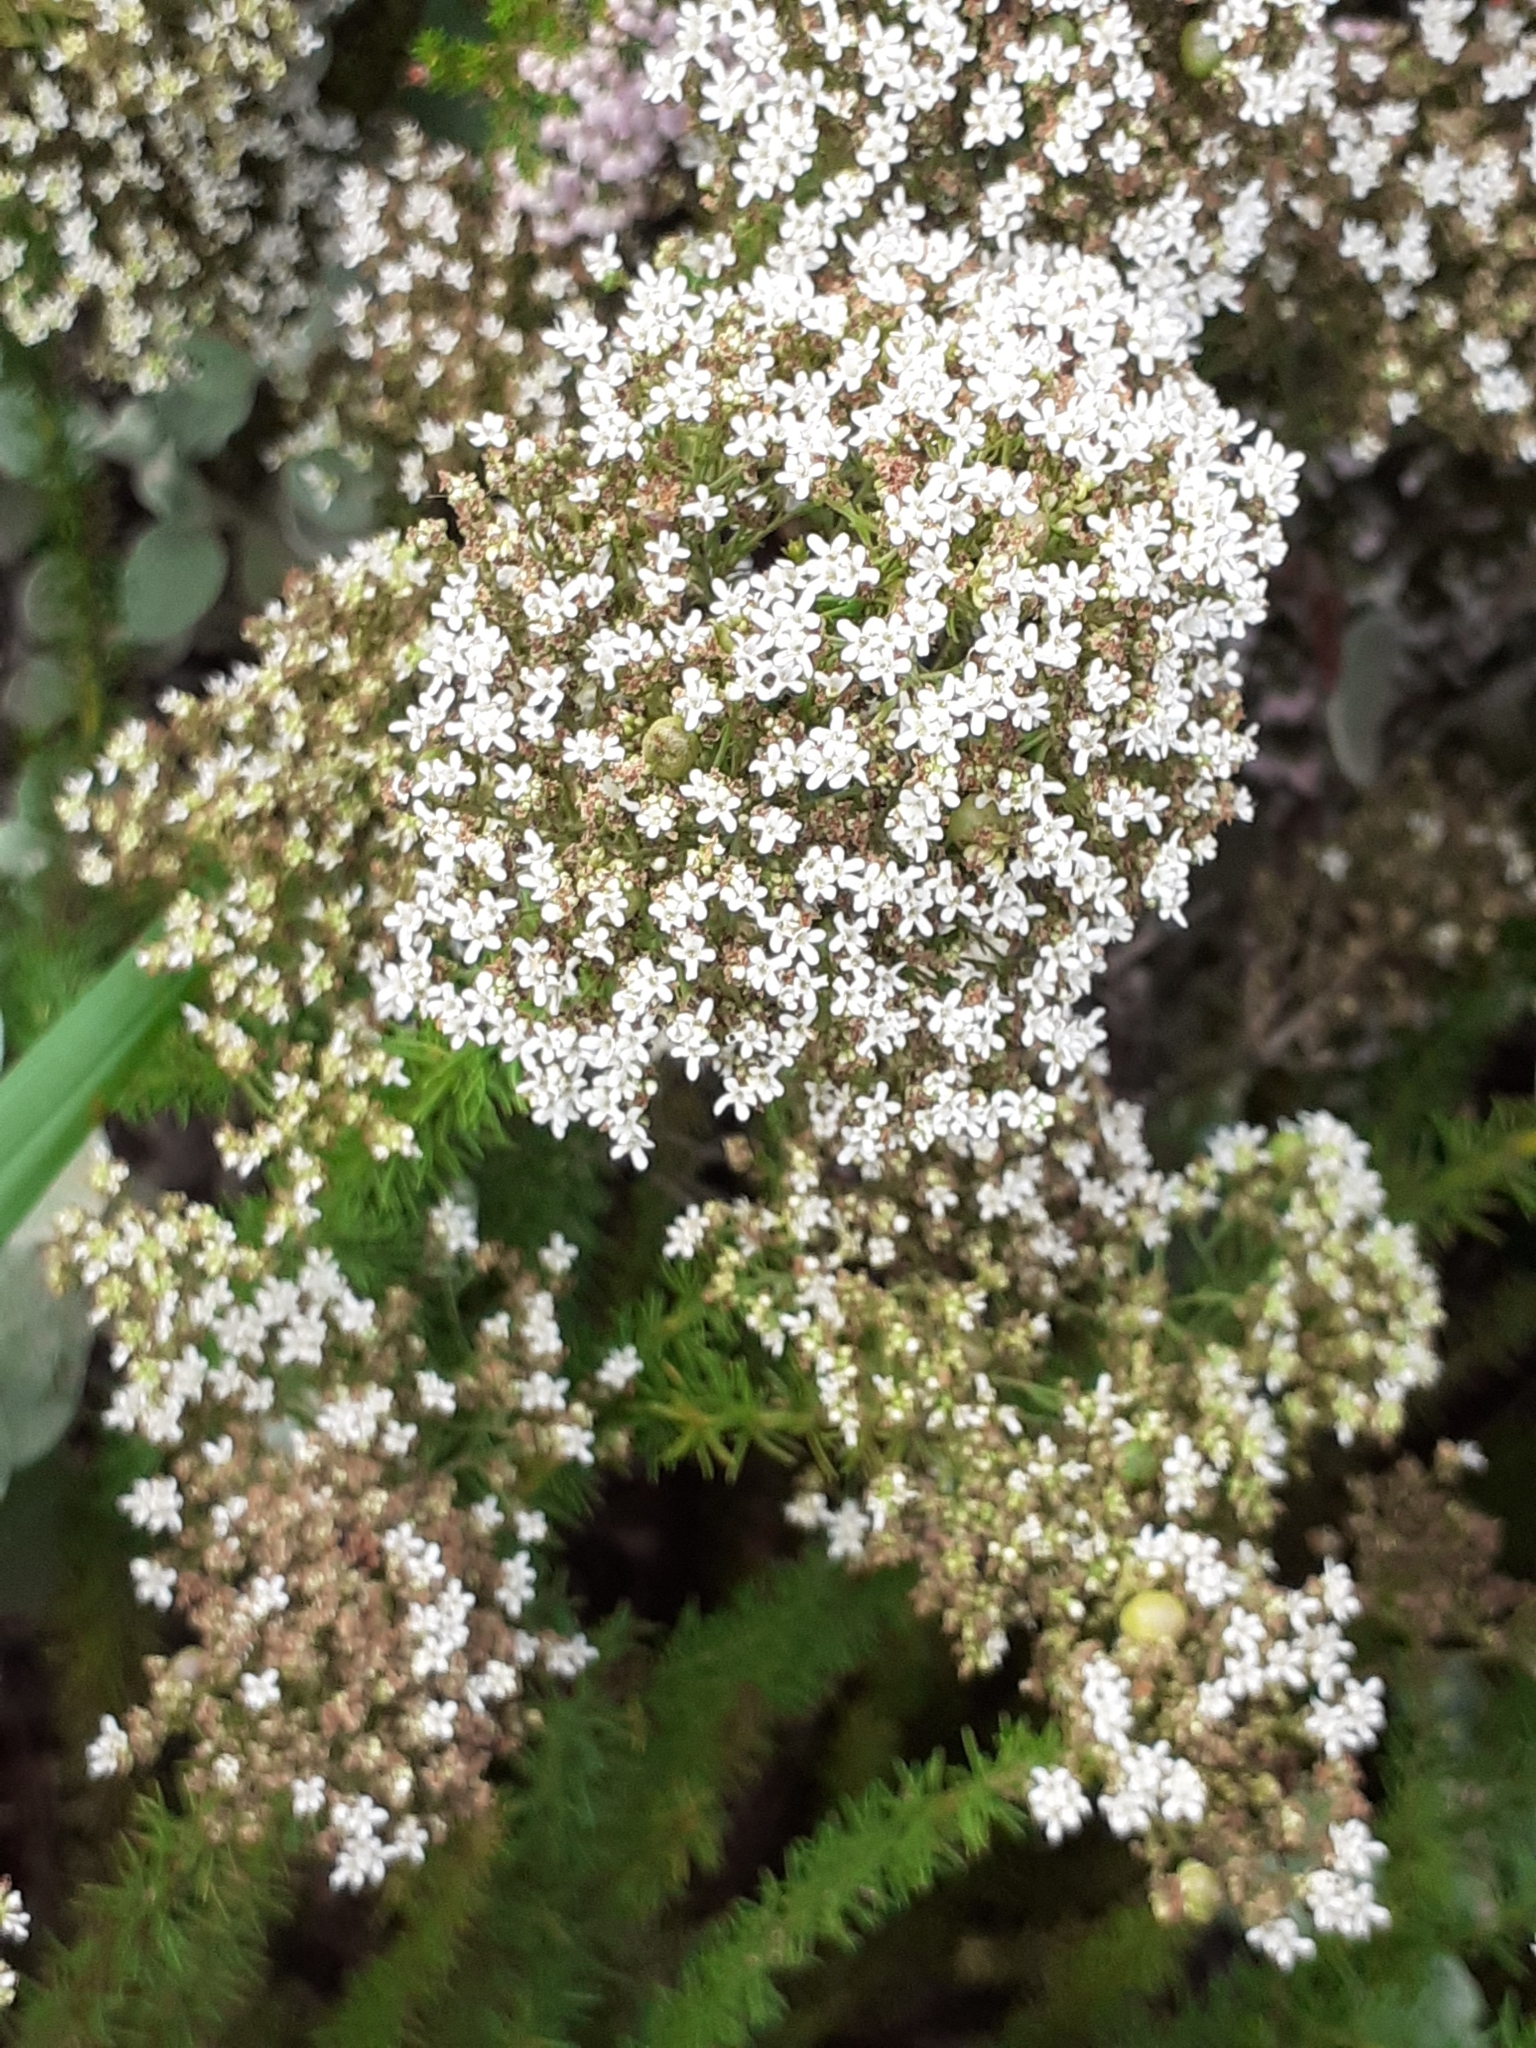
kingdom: Plantae
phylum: Tracheophyta
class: Magnoliopsida
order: Lamiales
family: Scrophulariaceae
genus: Selago
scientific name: Selago corymbosa
